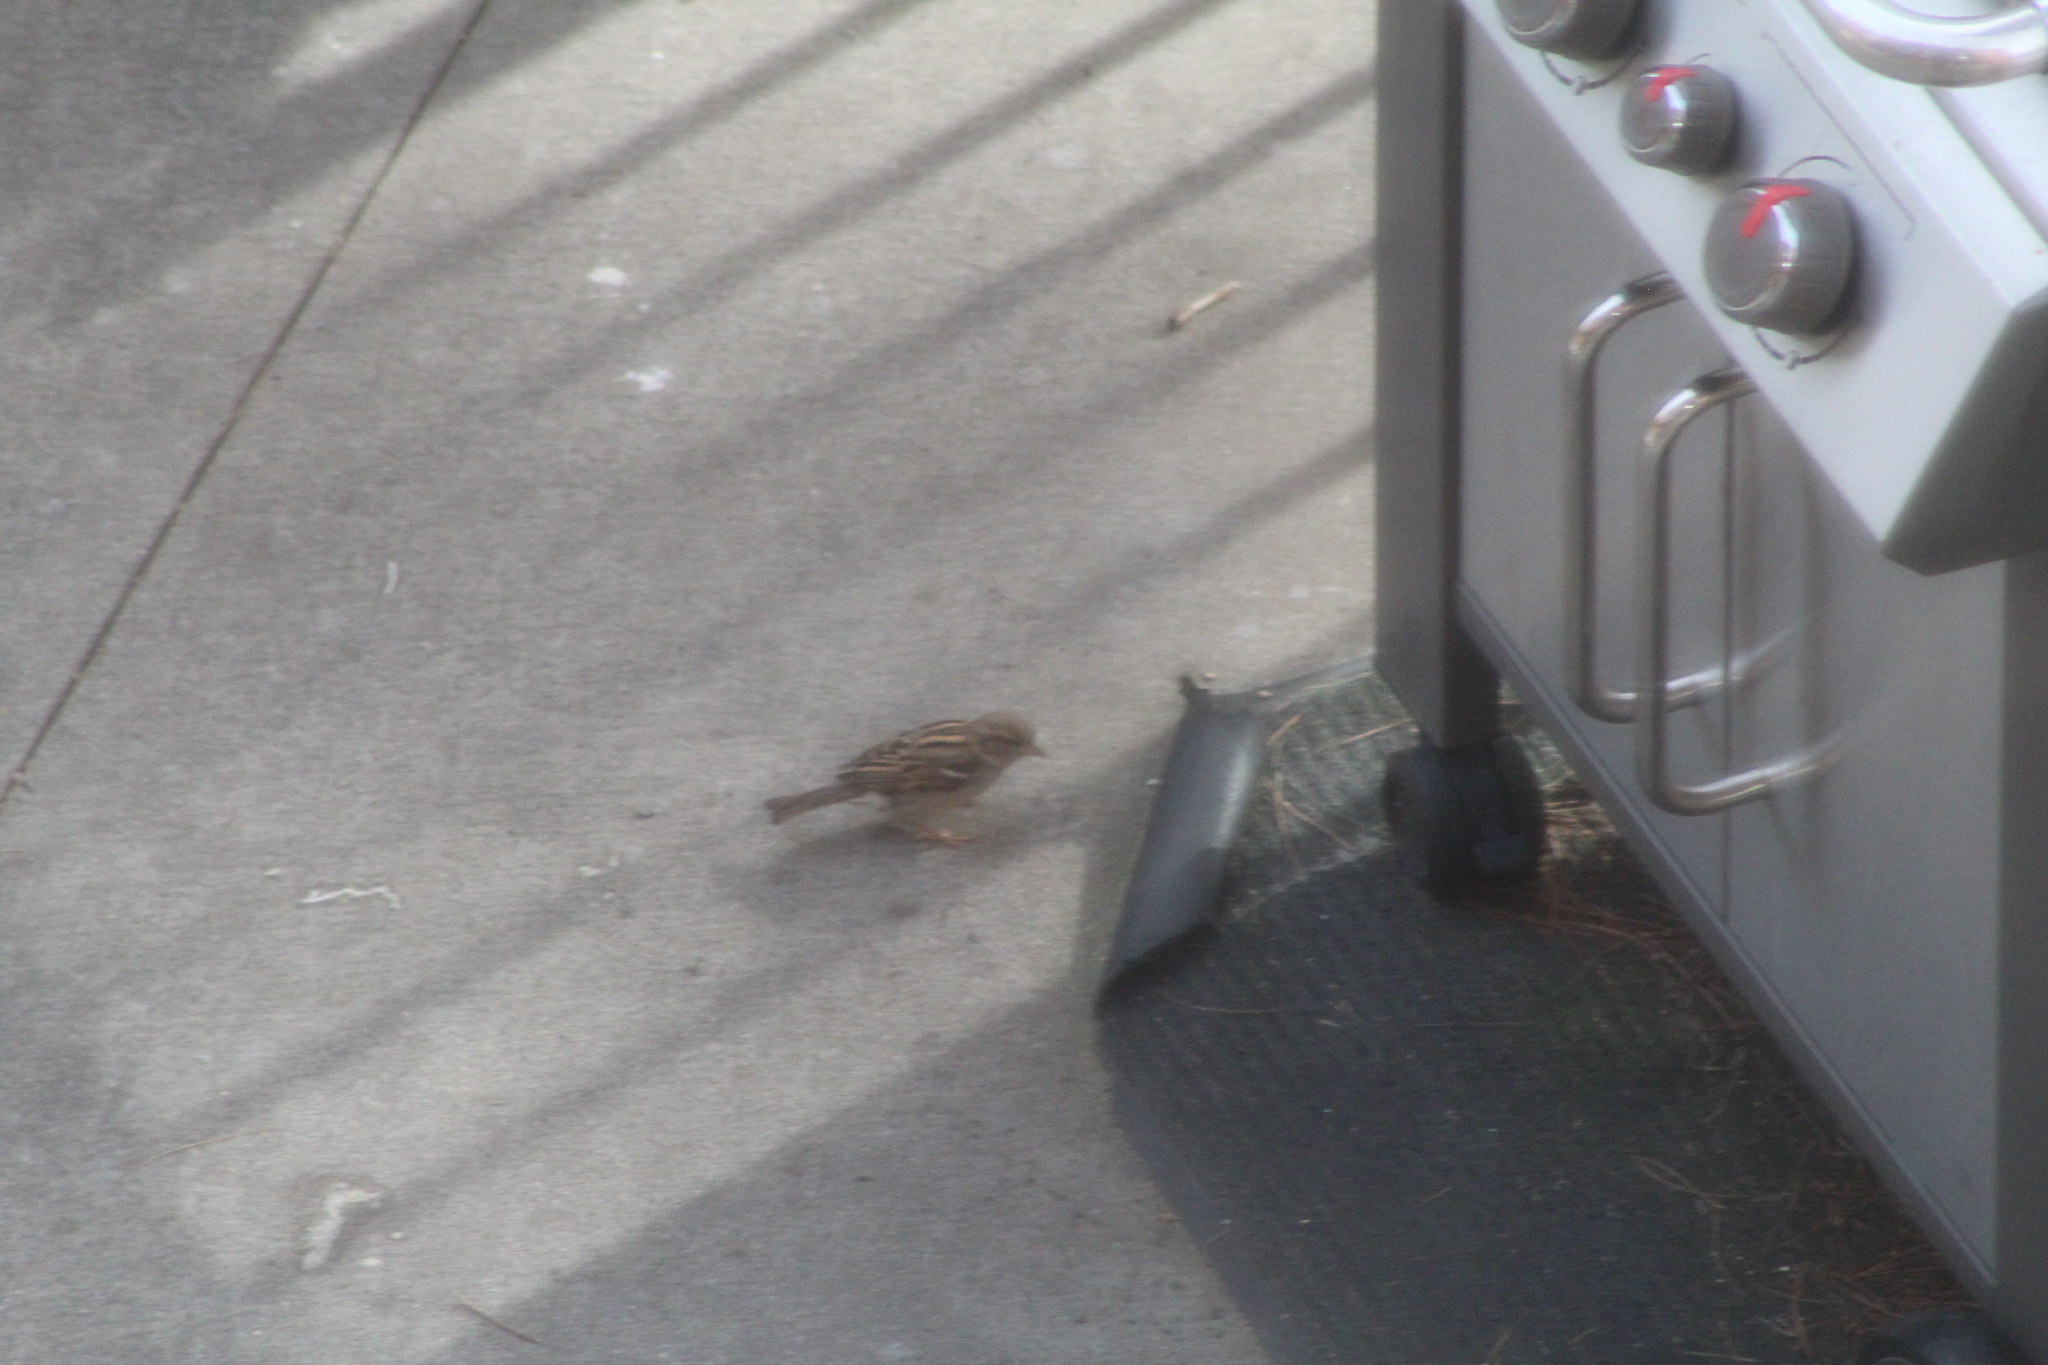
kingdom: Animalia
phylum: Chordata
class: Aves
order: Passeriformes
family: Passeridae
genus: Passer
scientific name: Passer domesticus
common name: House sparrow
